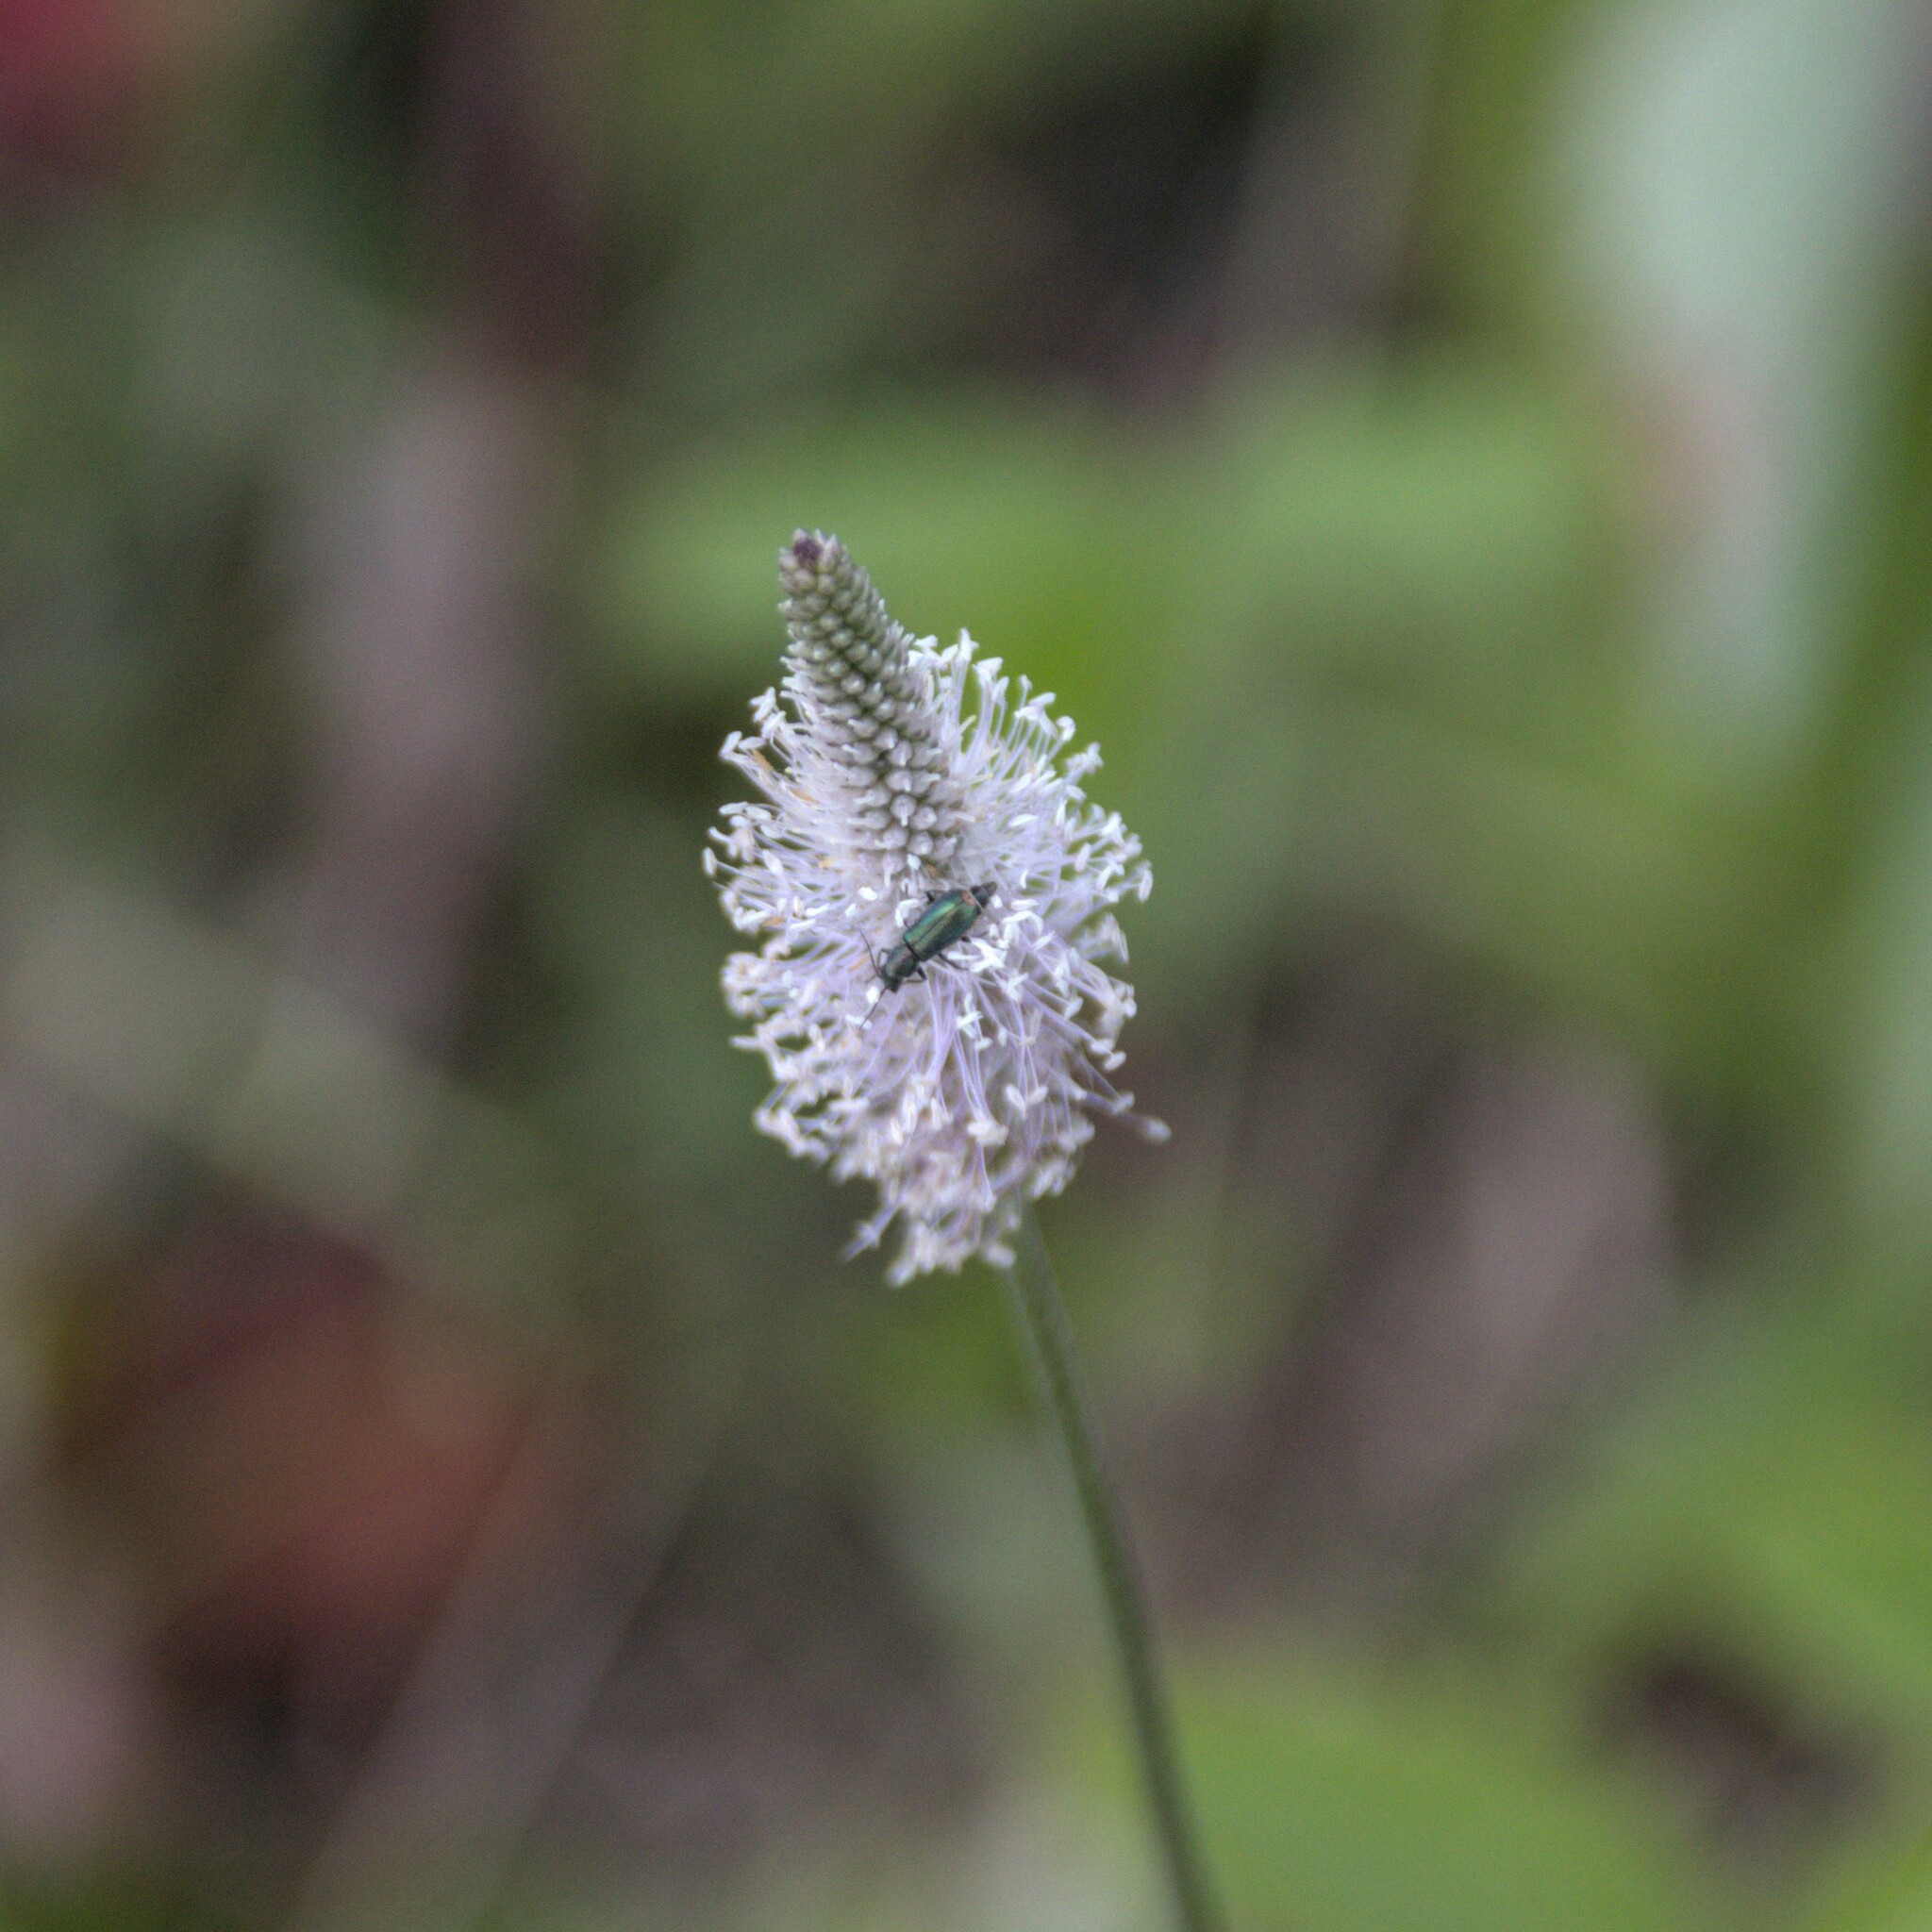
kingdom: Plantae
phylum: Tracheophyta
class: Magnoliopsida
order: Lamiales
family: Plantaginaceae
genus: Plantago
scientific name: Plantago media
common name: Hoary plantain
